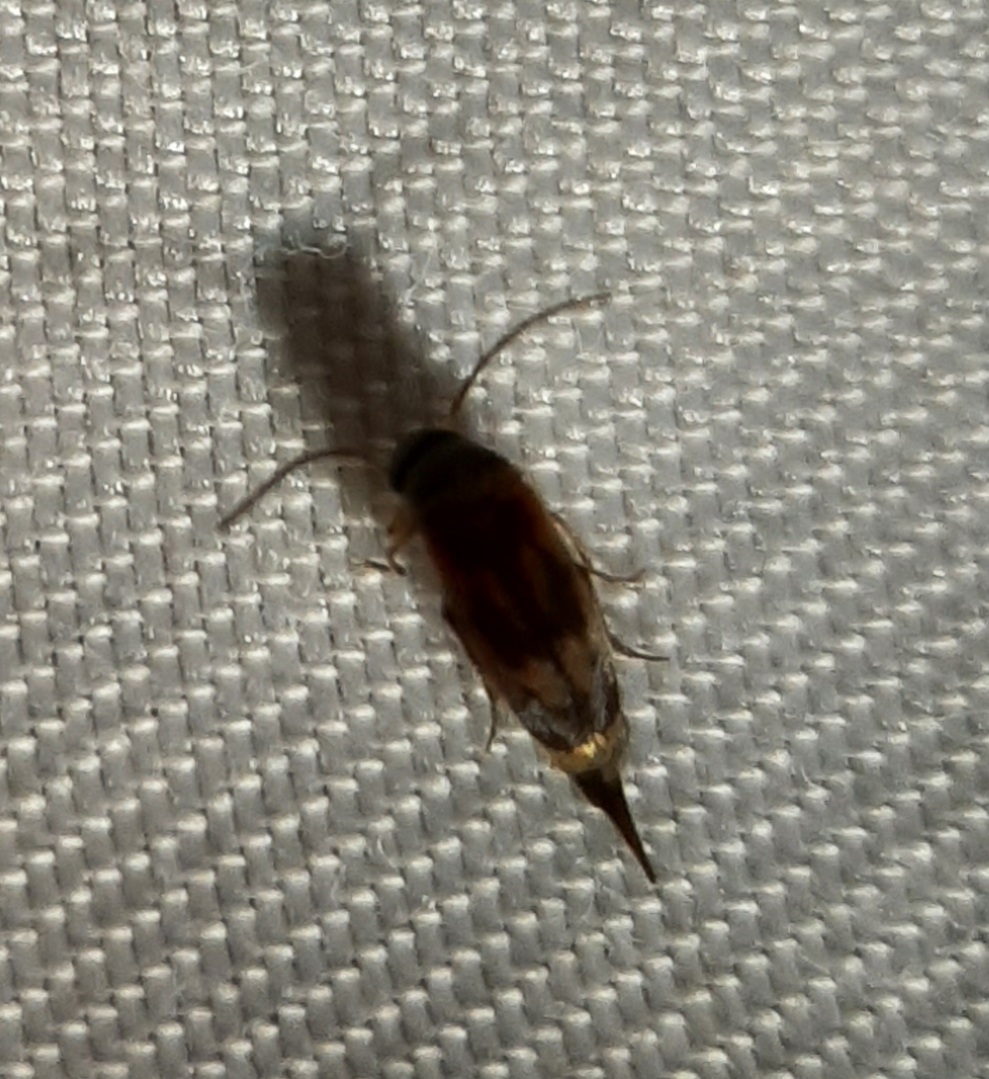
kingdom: Animalia
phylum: Arthropoda
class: Insecta
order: Coleoptera
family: Mordellidae
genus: Falsomordellistena
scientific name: Falsomordellistena bihamata
